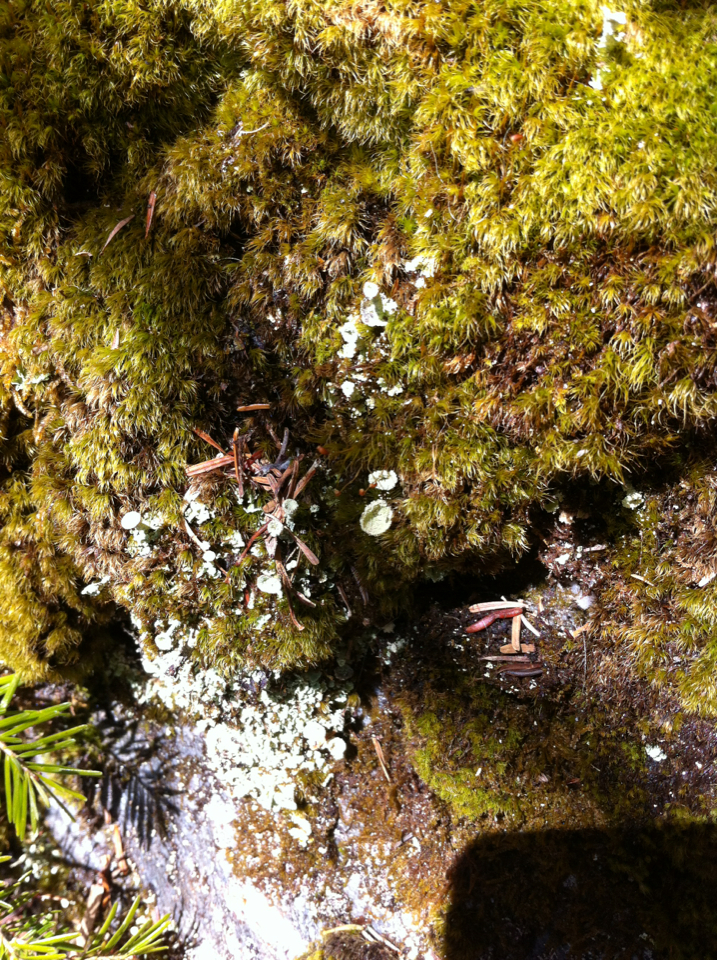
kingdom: Fungi
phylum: Ascomycota
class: Lecanoromycetes
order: Lecanorales
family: Cladoniaceae
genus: Cladonia
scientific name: Cladonia
